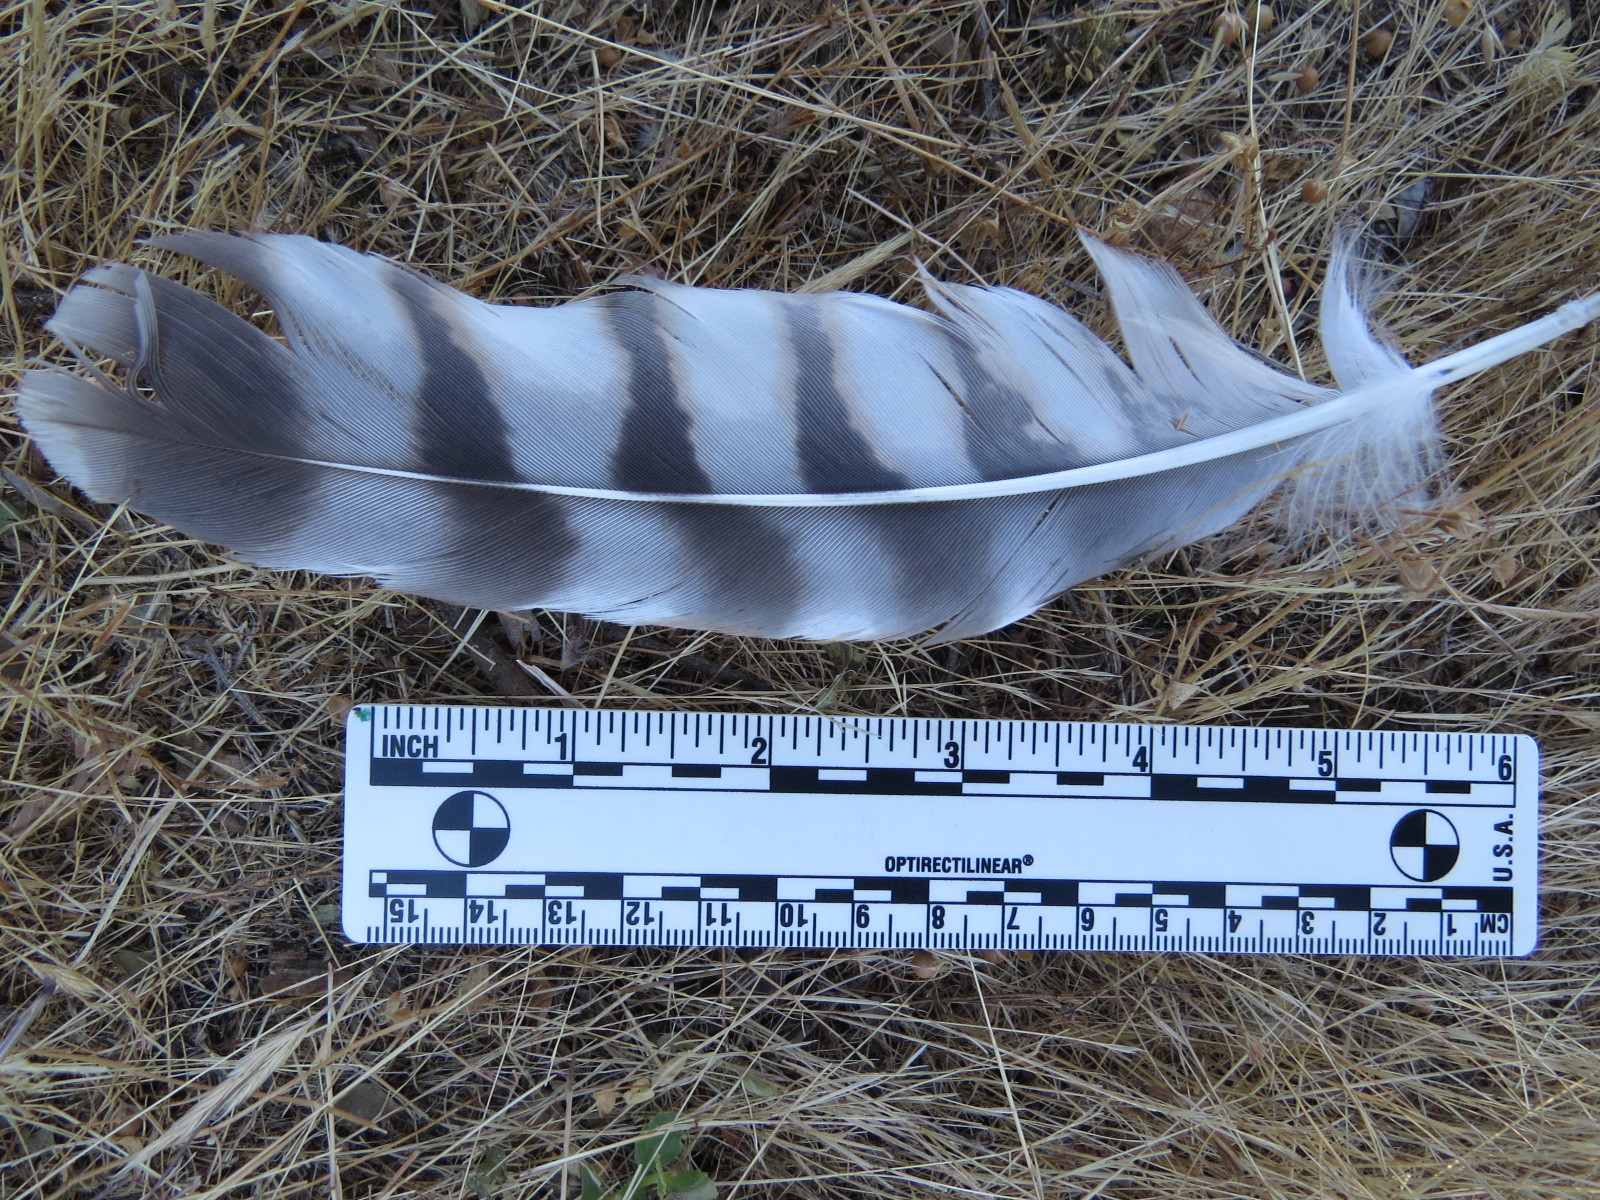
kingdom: Animalia
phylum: Chordata
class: Aves
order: Accipitriformes
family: Accipitridae
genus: Buteo
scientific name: Buteo lineatus
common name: Red-shouldered hawk
